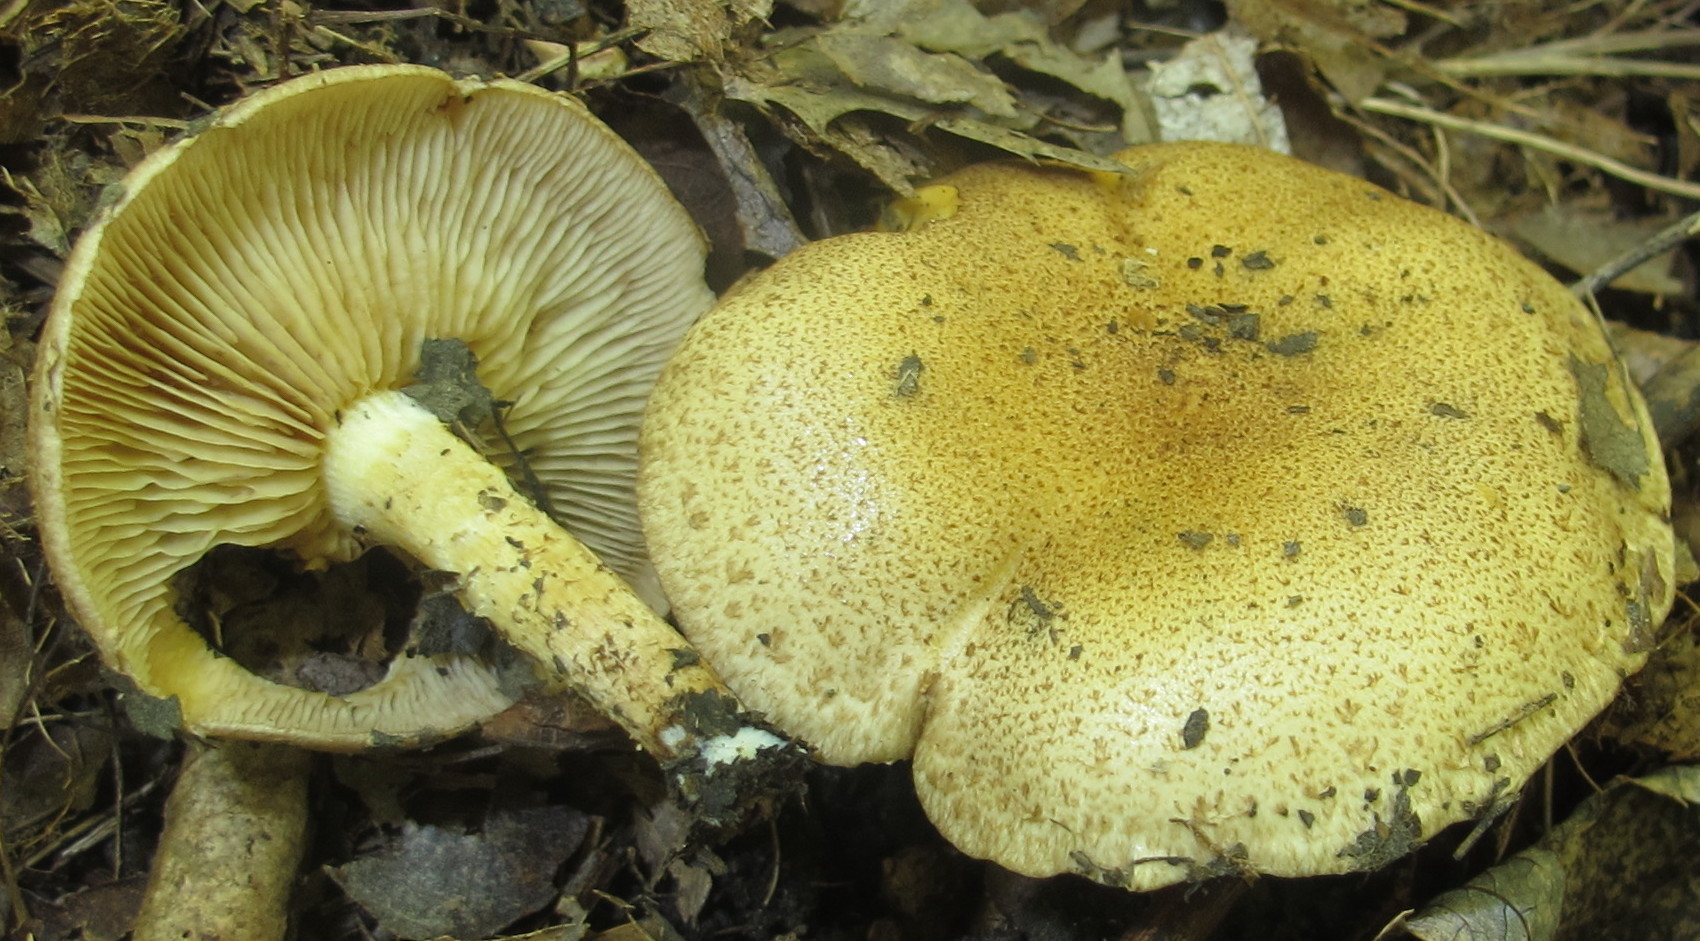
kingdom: Fungi
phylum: Basidiomycota
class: Agaricomycetes
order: Agaricales
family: Strophariaceae
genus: Pholiota
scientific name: Pholiota angustipes
